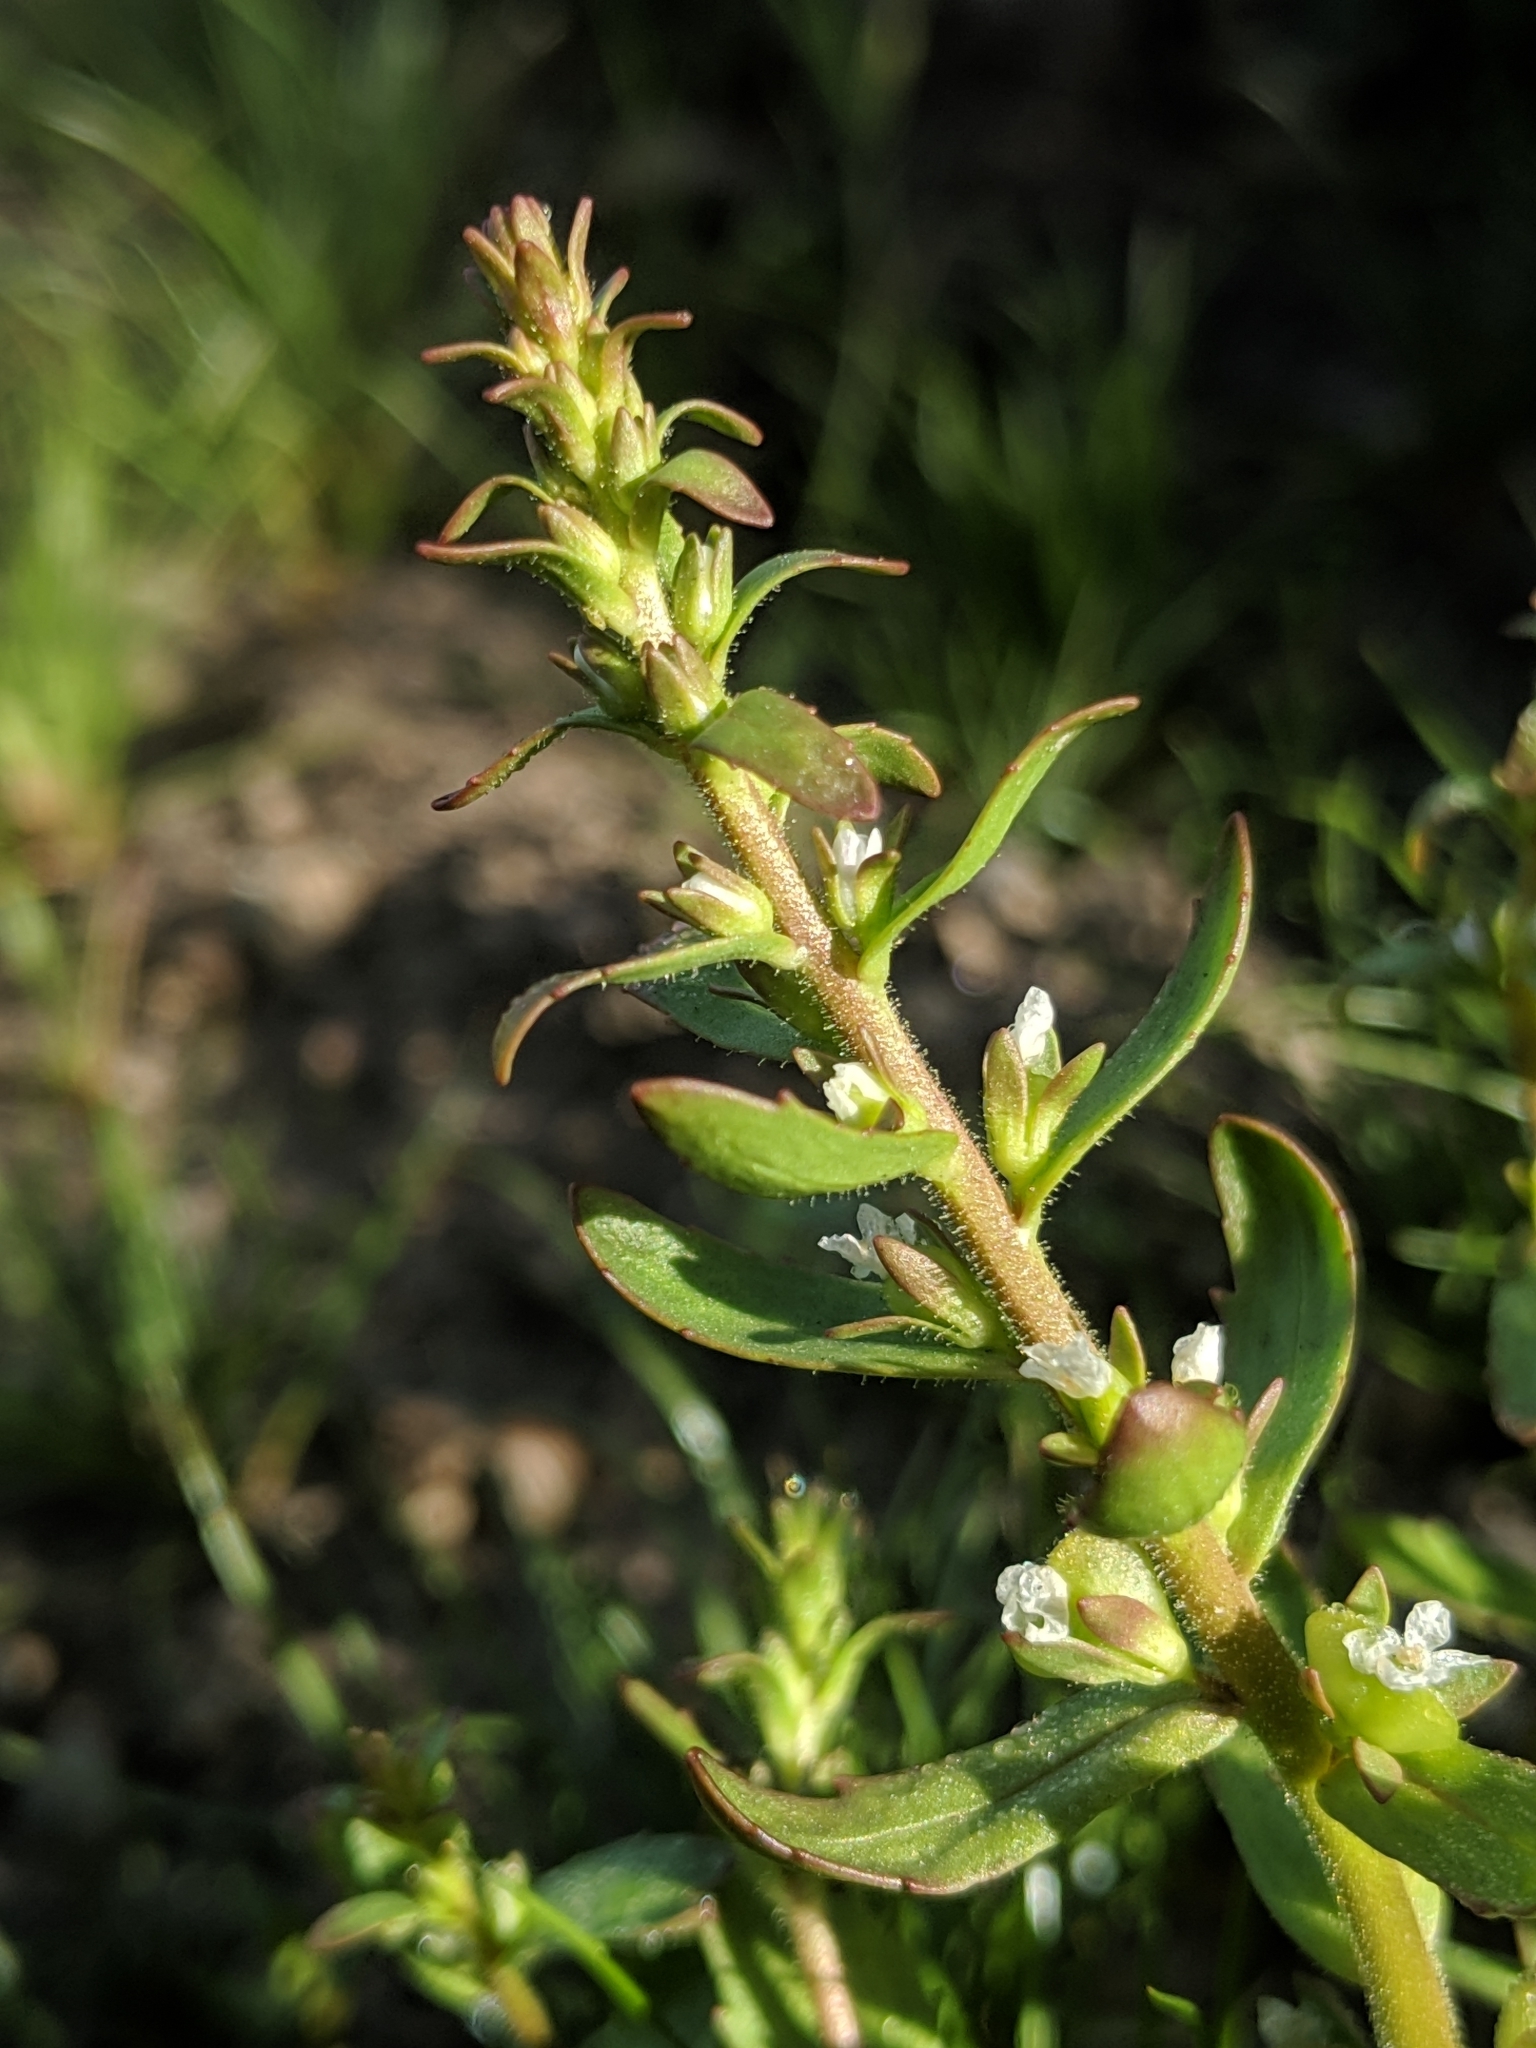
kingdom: Plantae
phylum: Tracheophyta
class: Magnoliopsida
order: Lamiales
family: Plantaginaceae
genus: Veronica
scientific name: Veronica peregrina
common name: Neckweed
